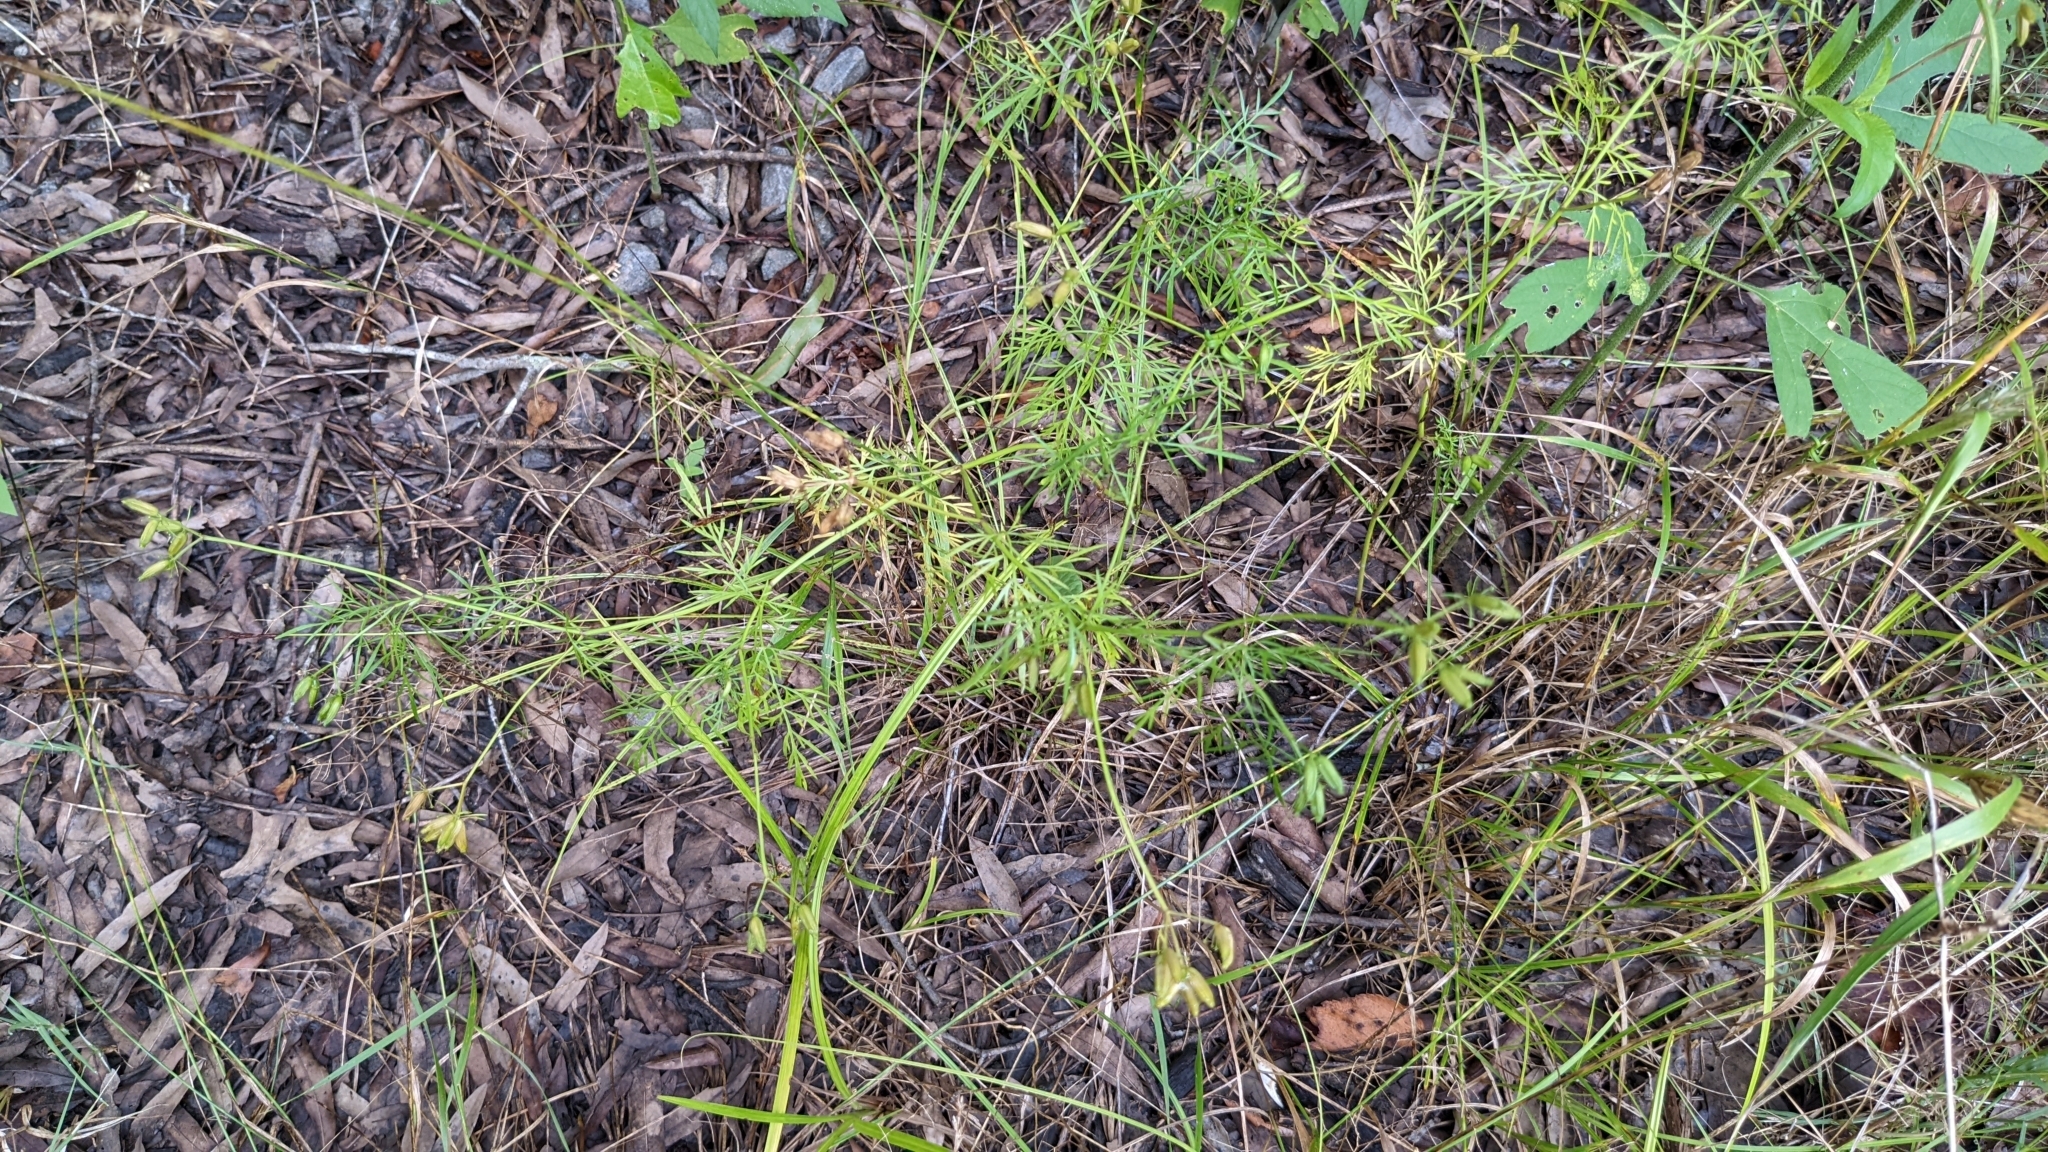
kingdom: Plantae
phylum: Tracheophyta
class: Magnoliopsida
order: Apiales
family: Apiaceae
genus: Trepocarpus
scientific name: Trepocarpus aethusae
